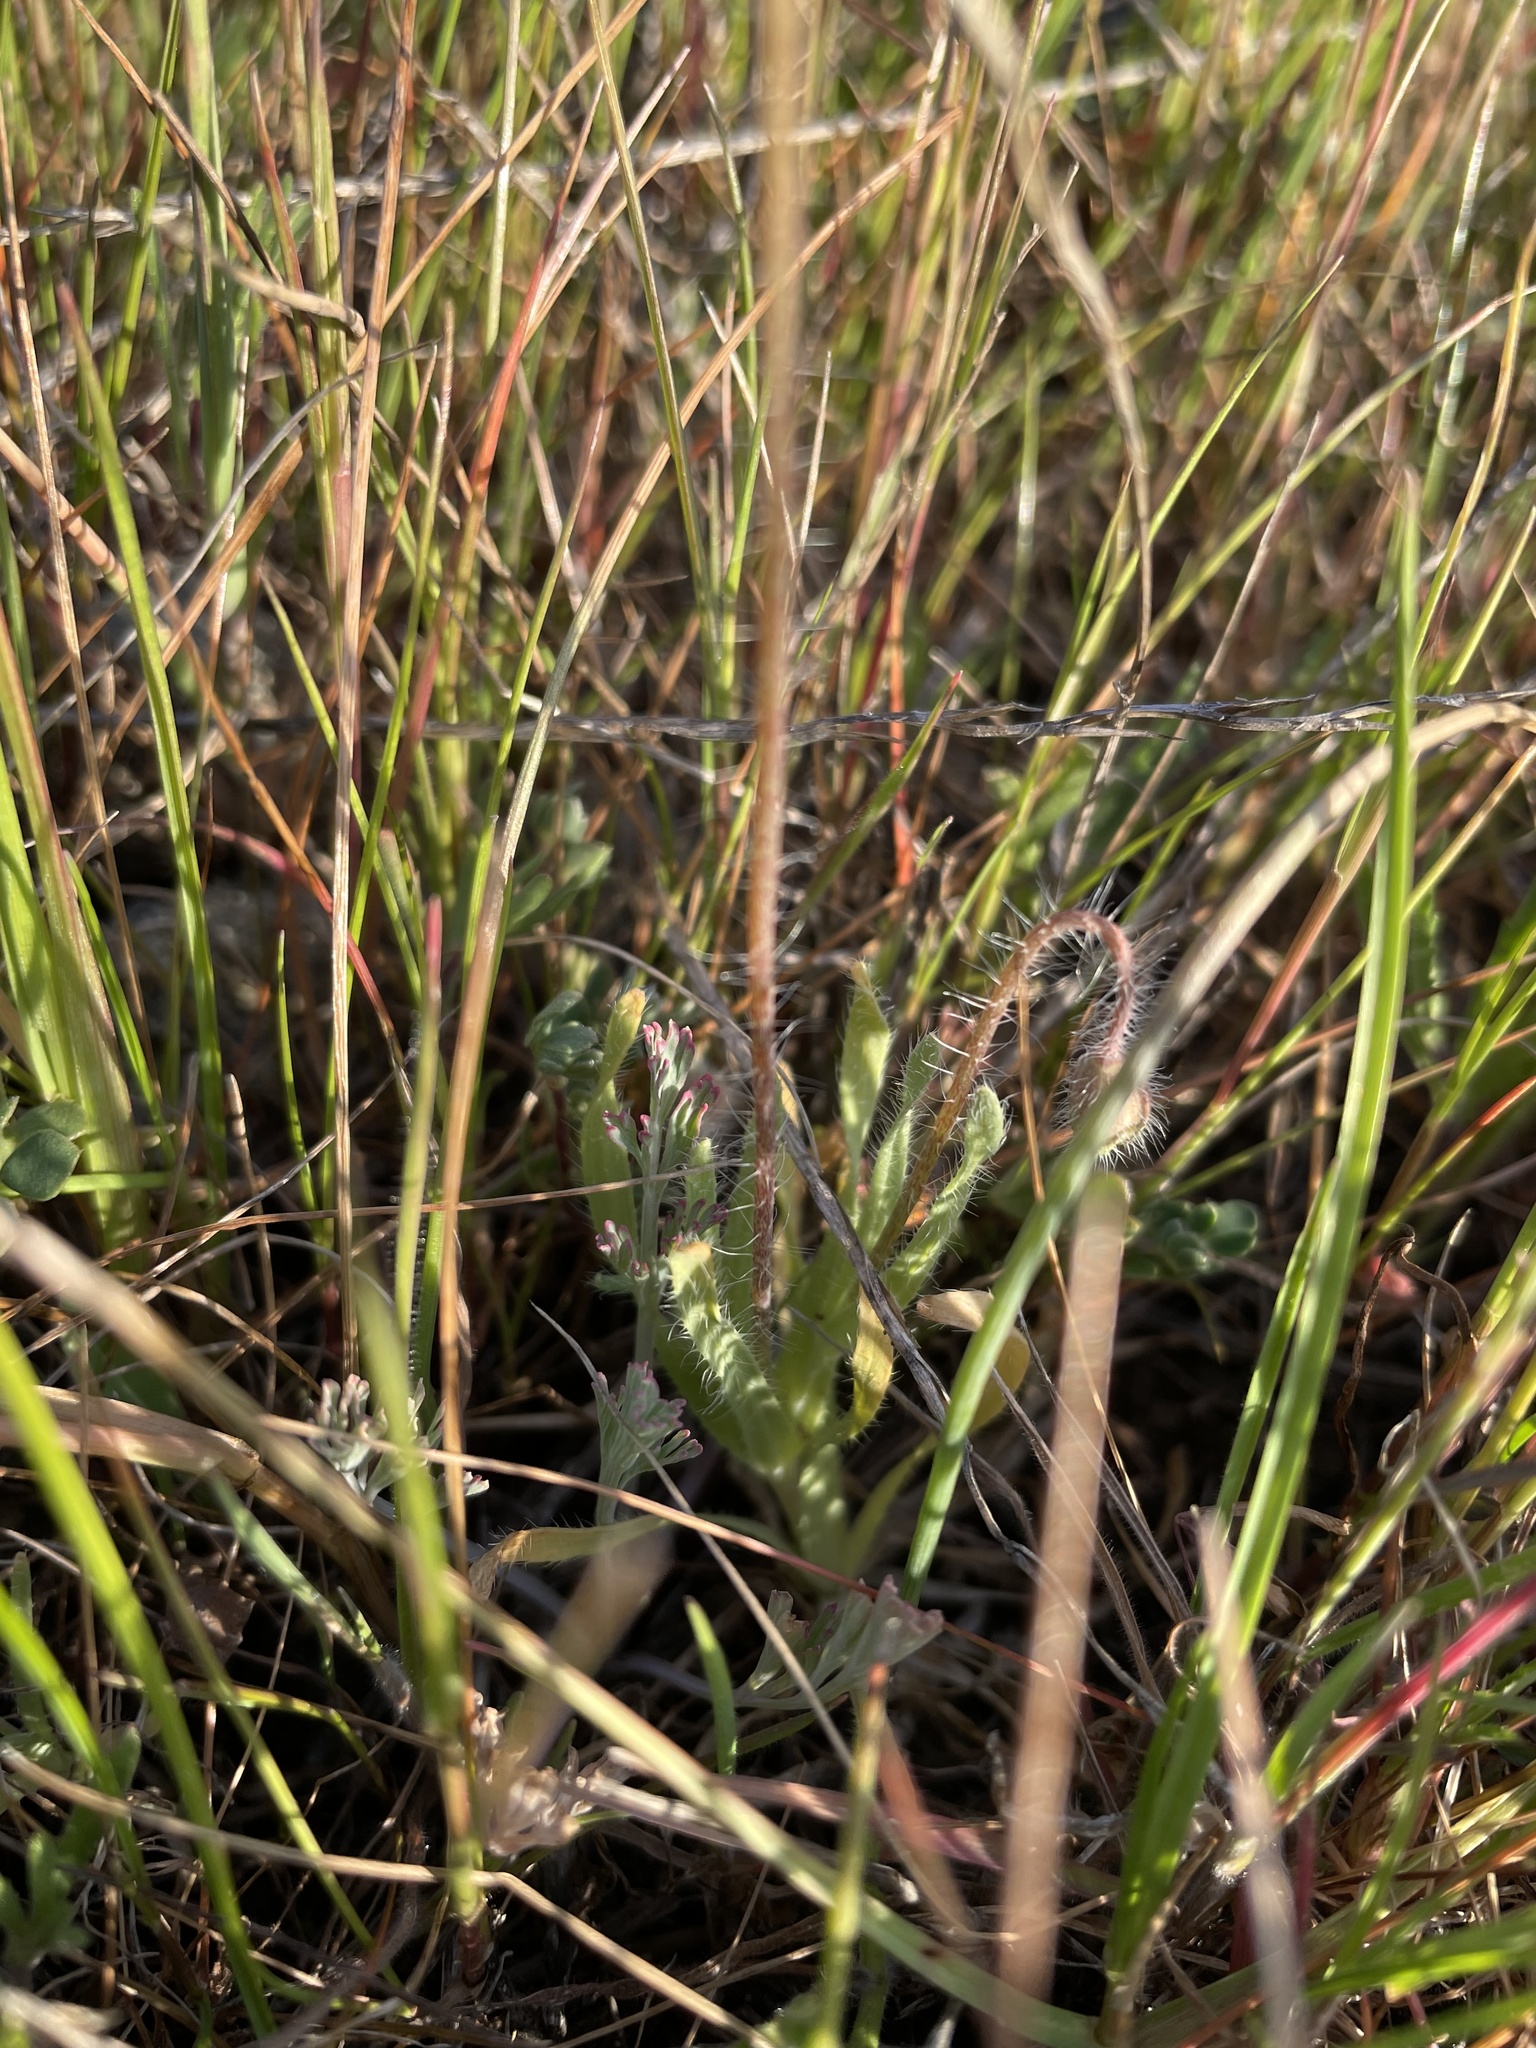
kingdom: Plantae
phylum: Tracheophyta
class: Magnoliopsida
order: Ranunculales
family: Papaveraceae
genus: Platystemon
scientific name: Platystemon californicus
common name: Cream-cups
